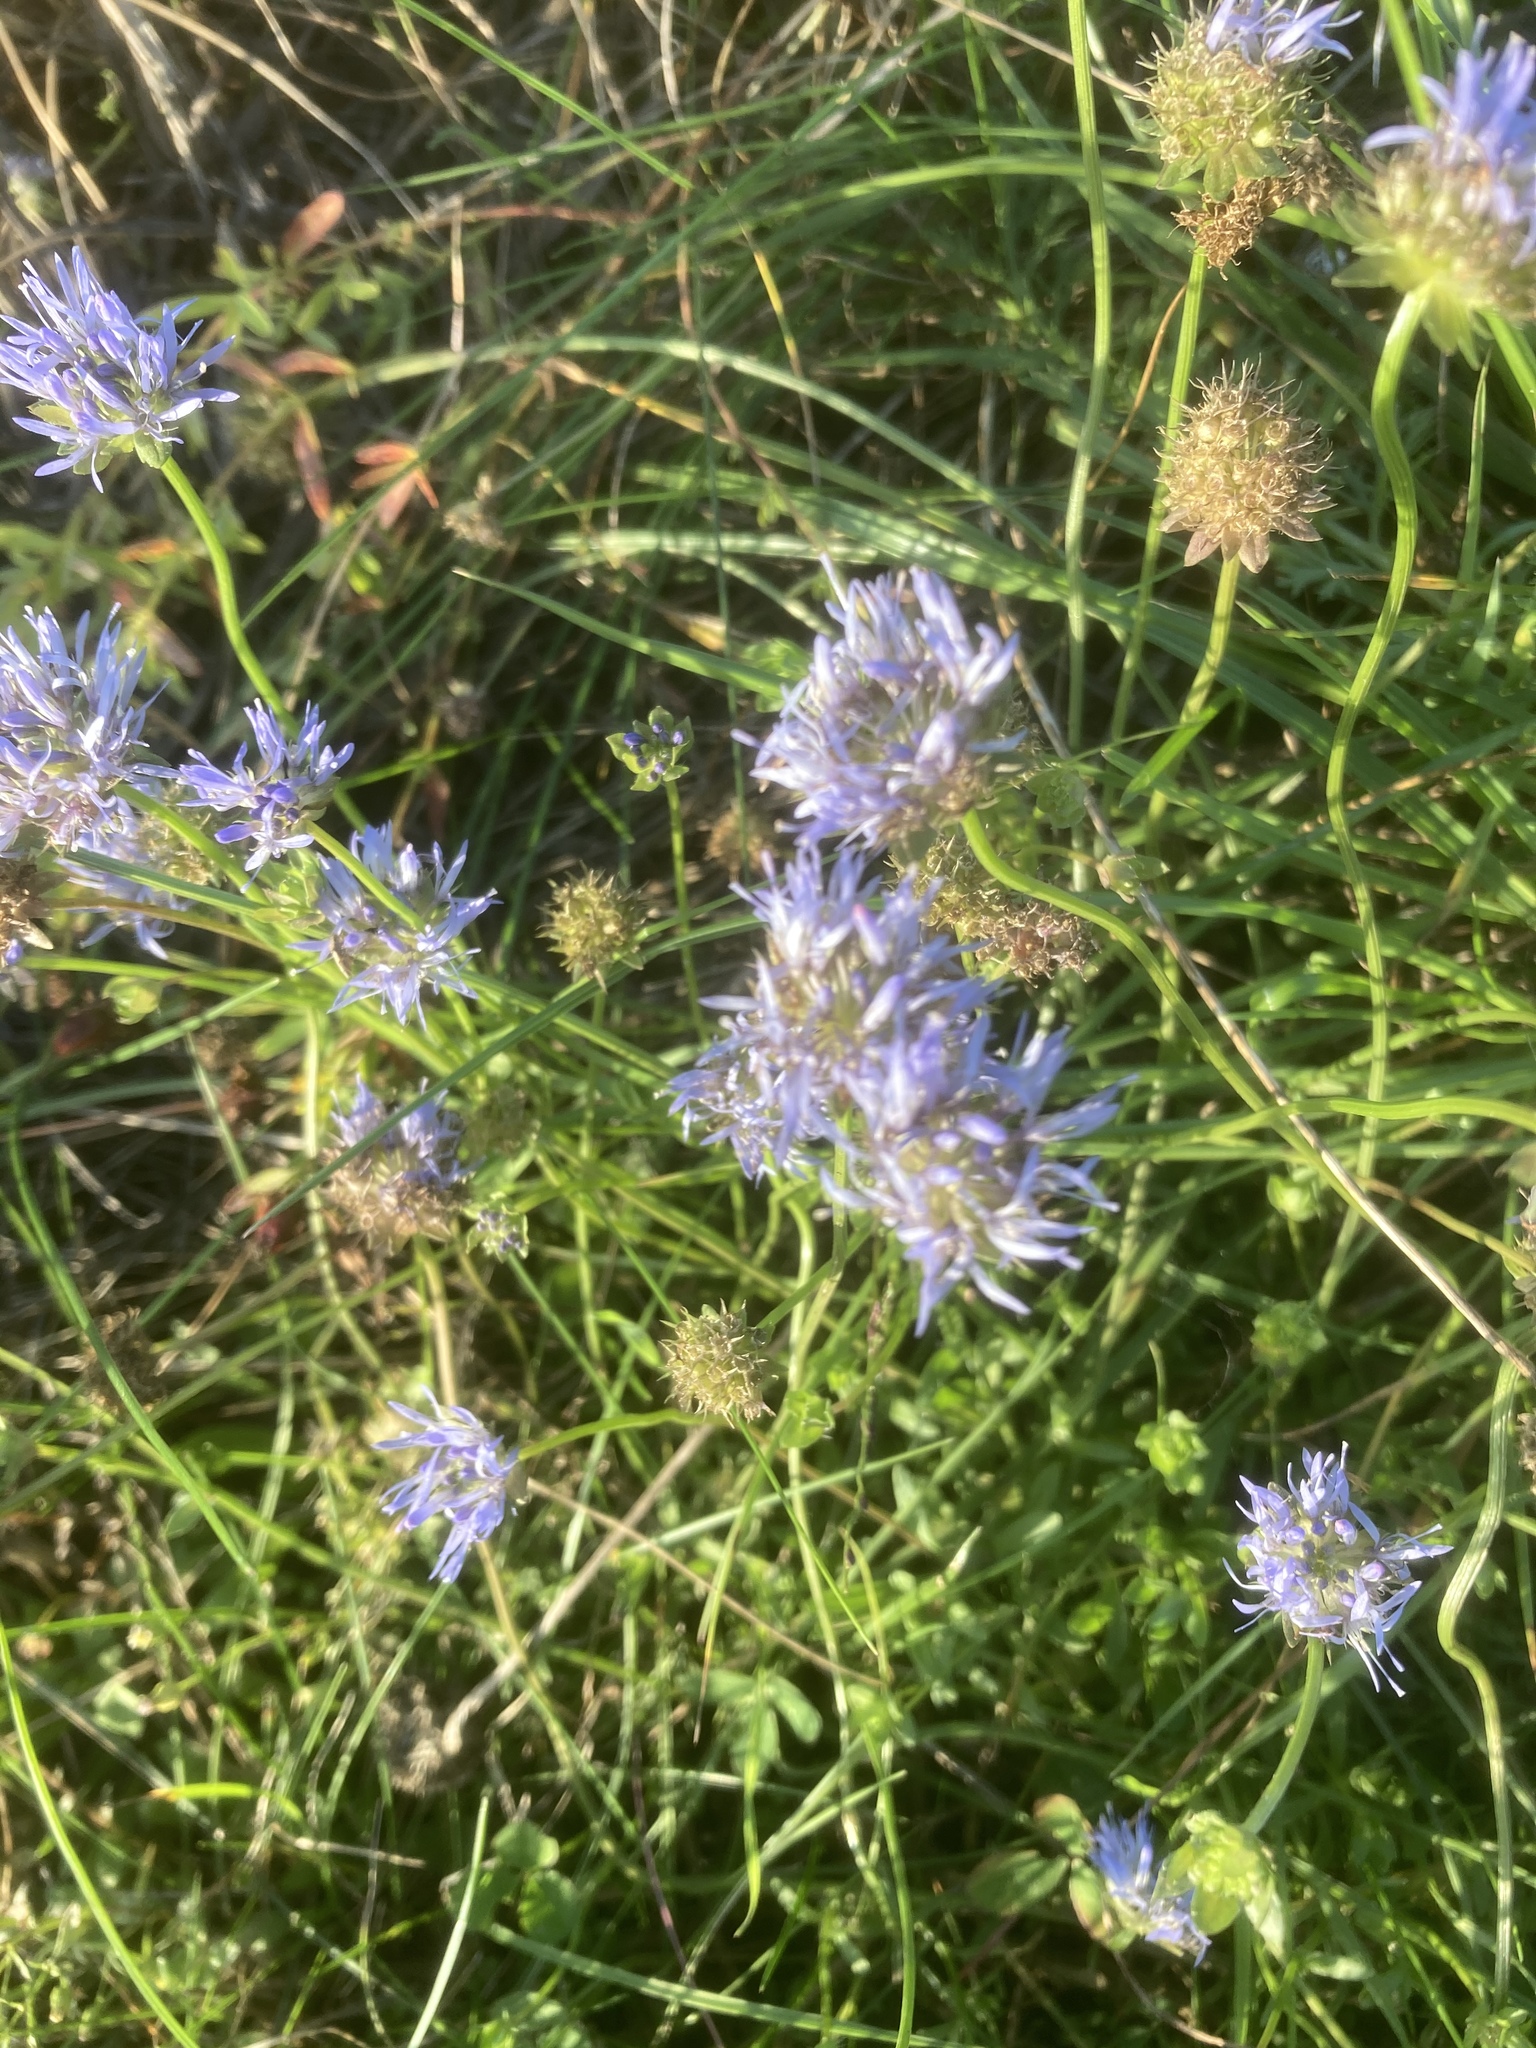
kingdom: Plantae
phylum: Tracheophyta
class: Magnoliopsida
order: Asterales
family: Campanulaceae
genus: Jasione
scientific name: Jasione montana
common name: Sheep's-bit
